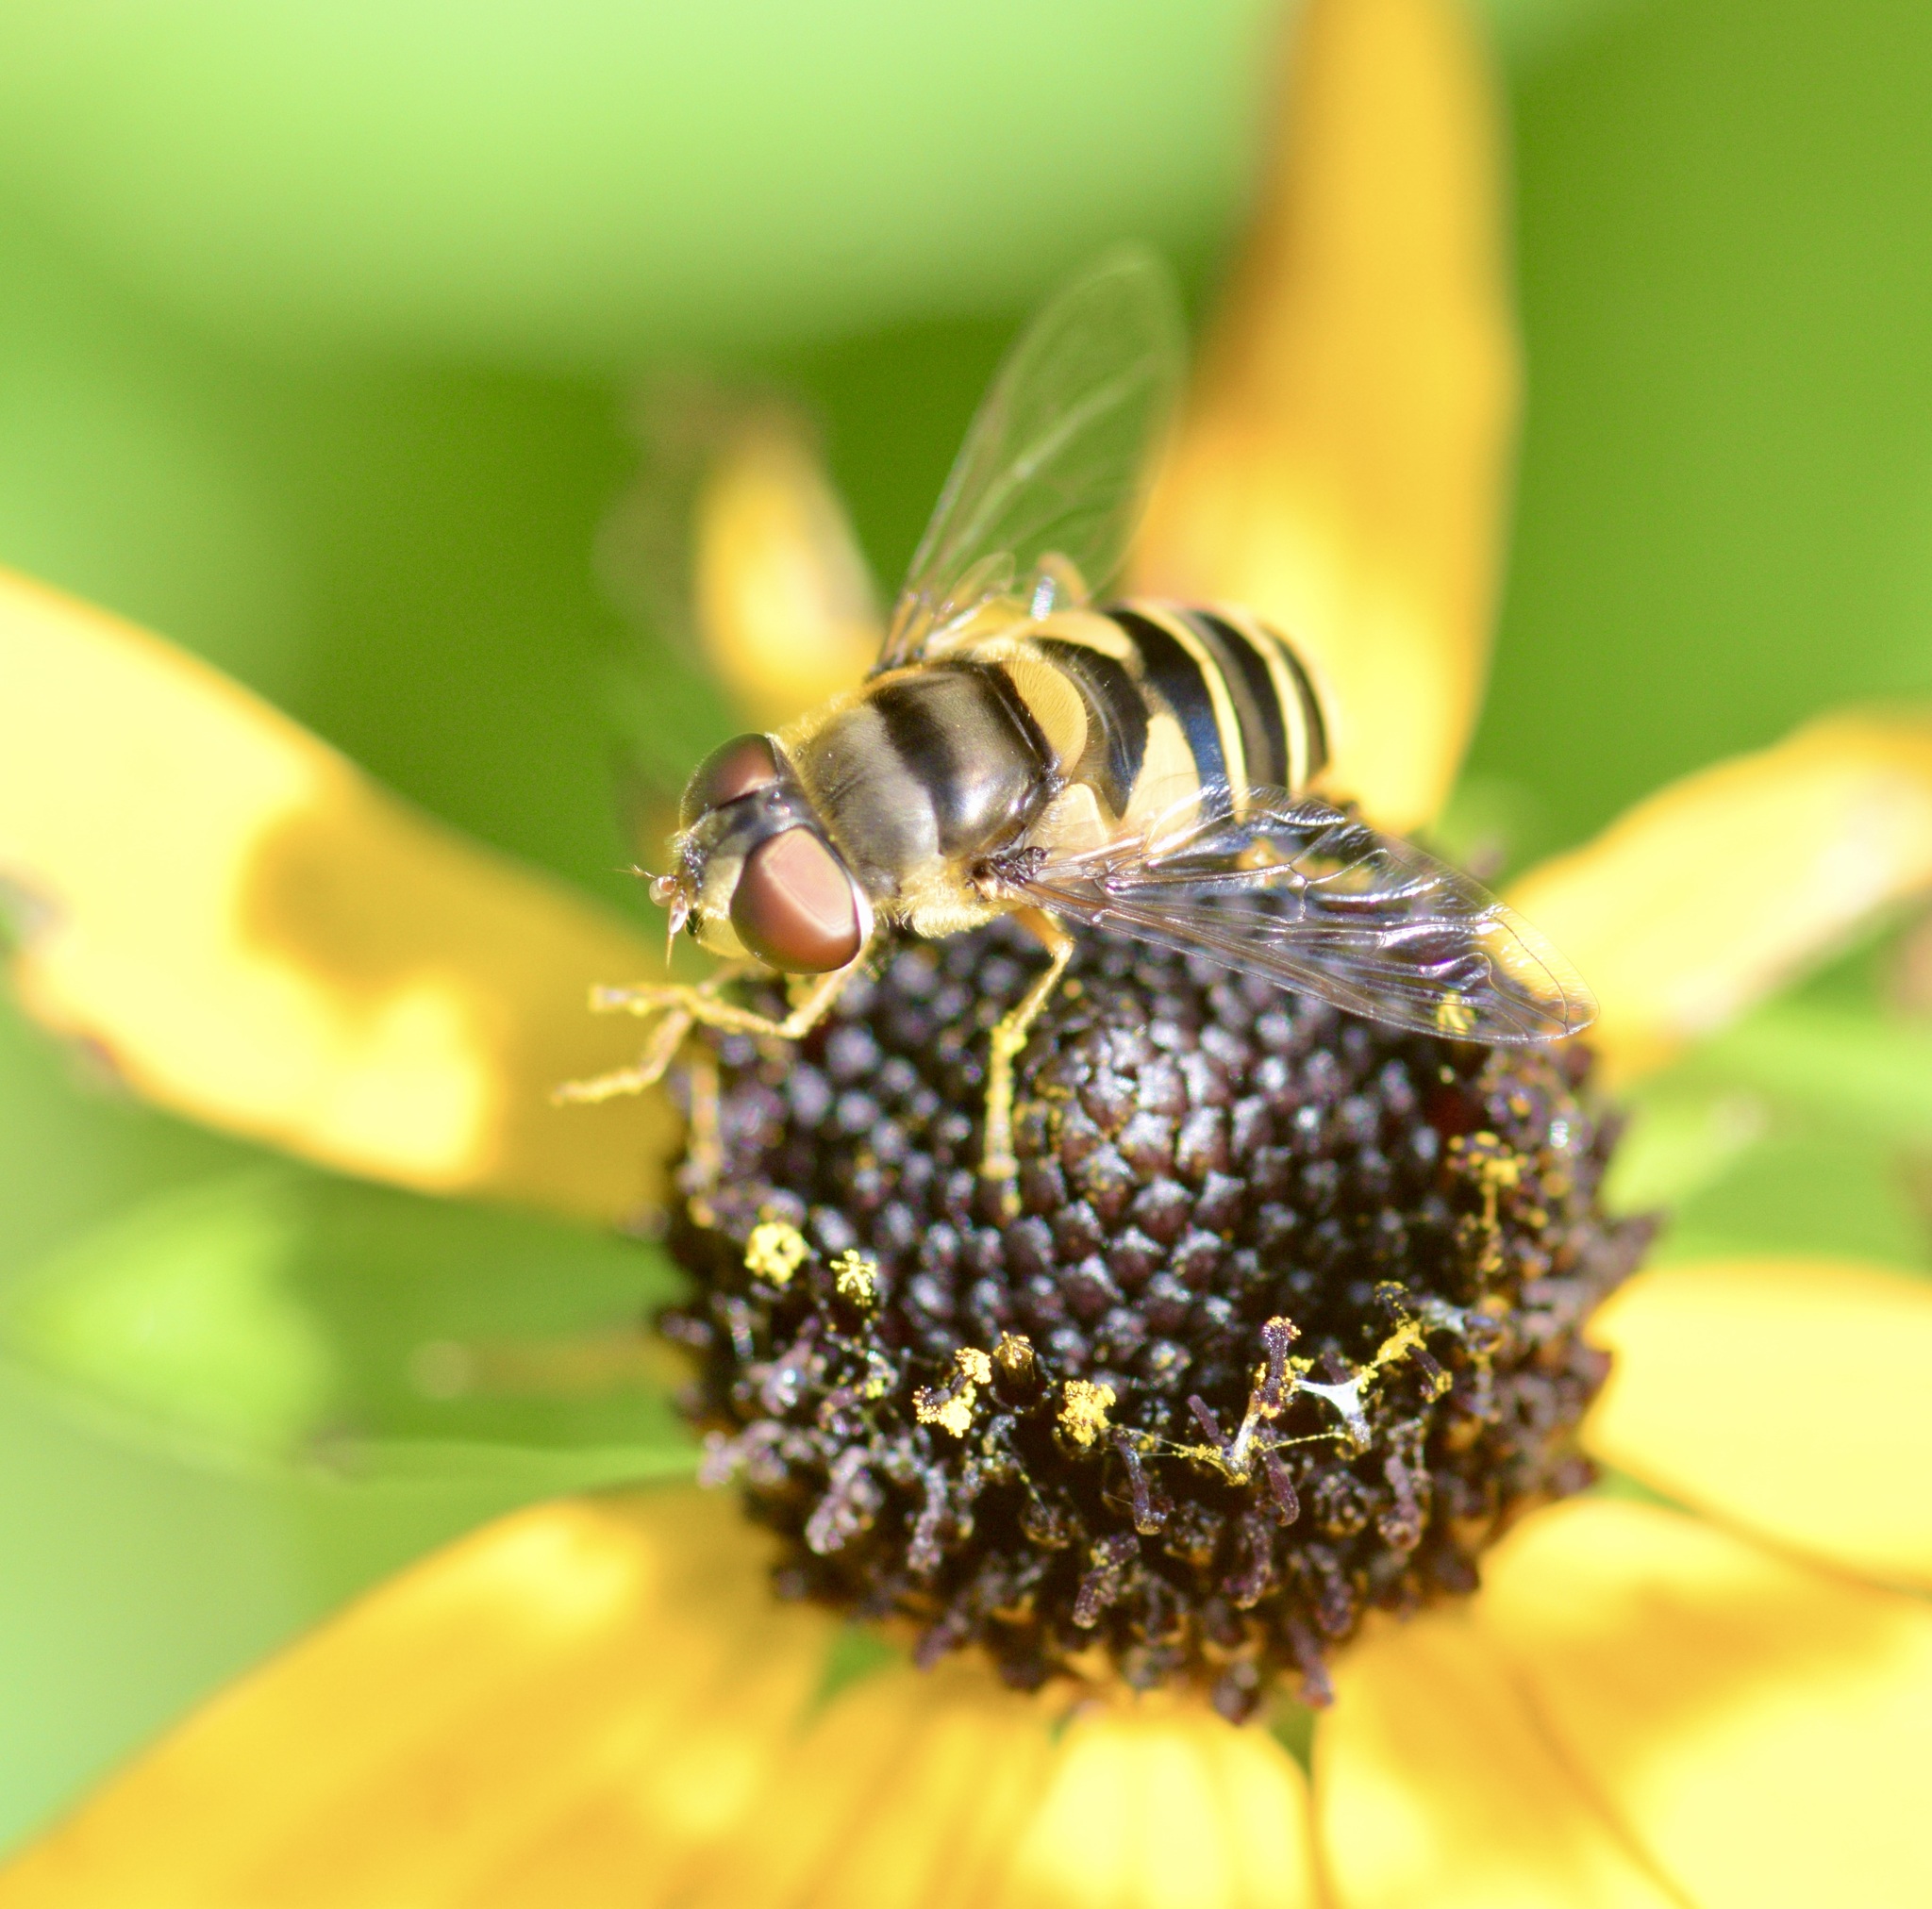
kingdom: Animalia
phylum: Arthropoda
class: Insecta
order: Diptera
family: Syrphidae
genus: Eristalis
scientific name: Eristalis transversa
